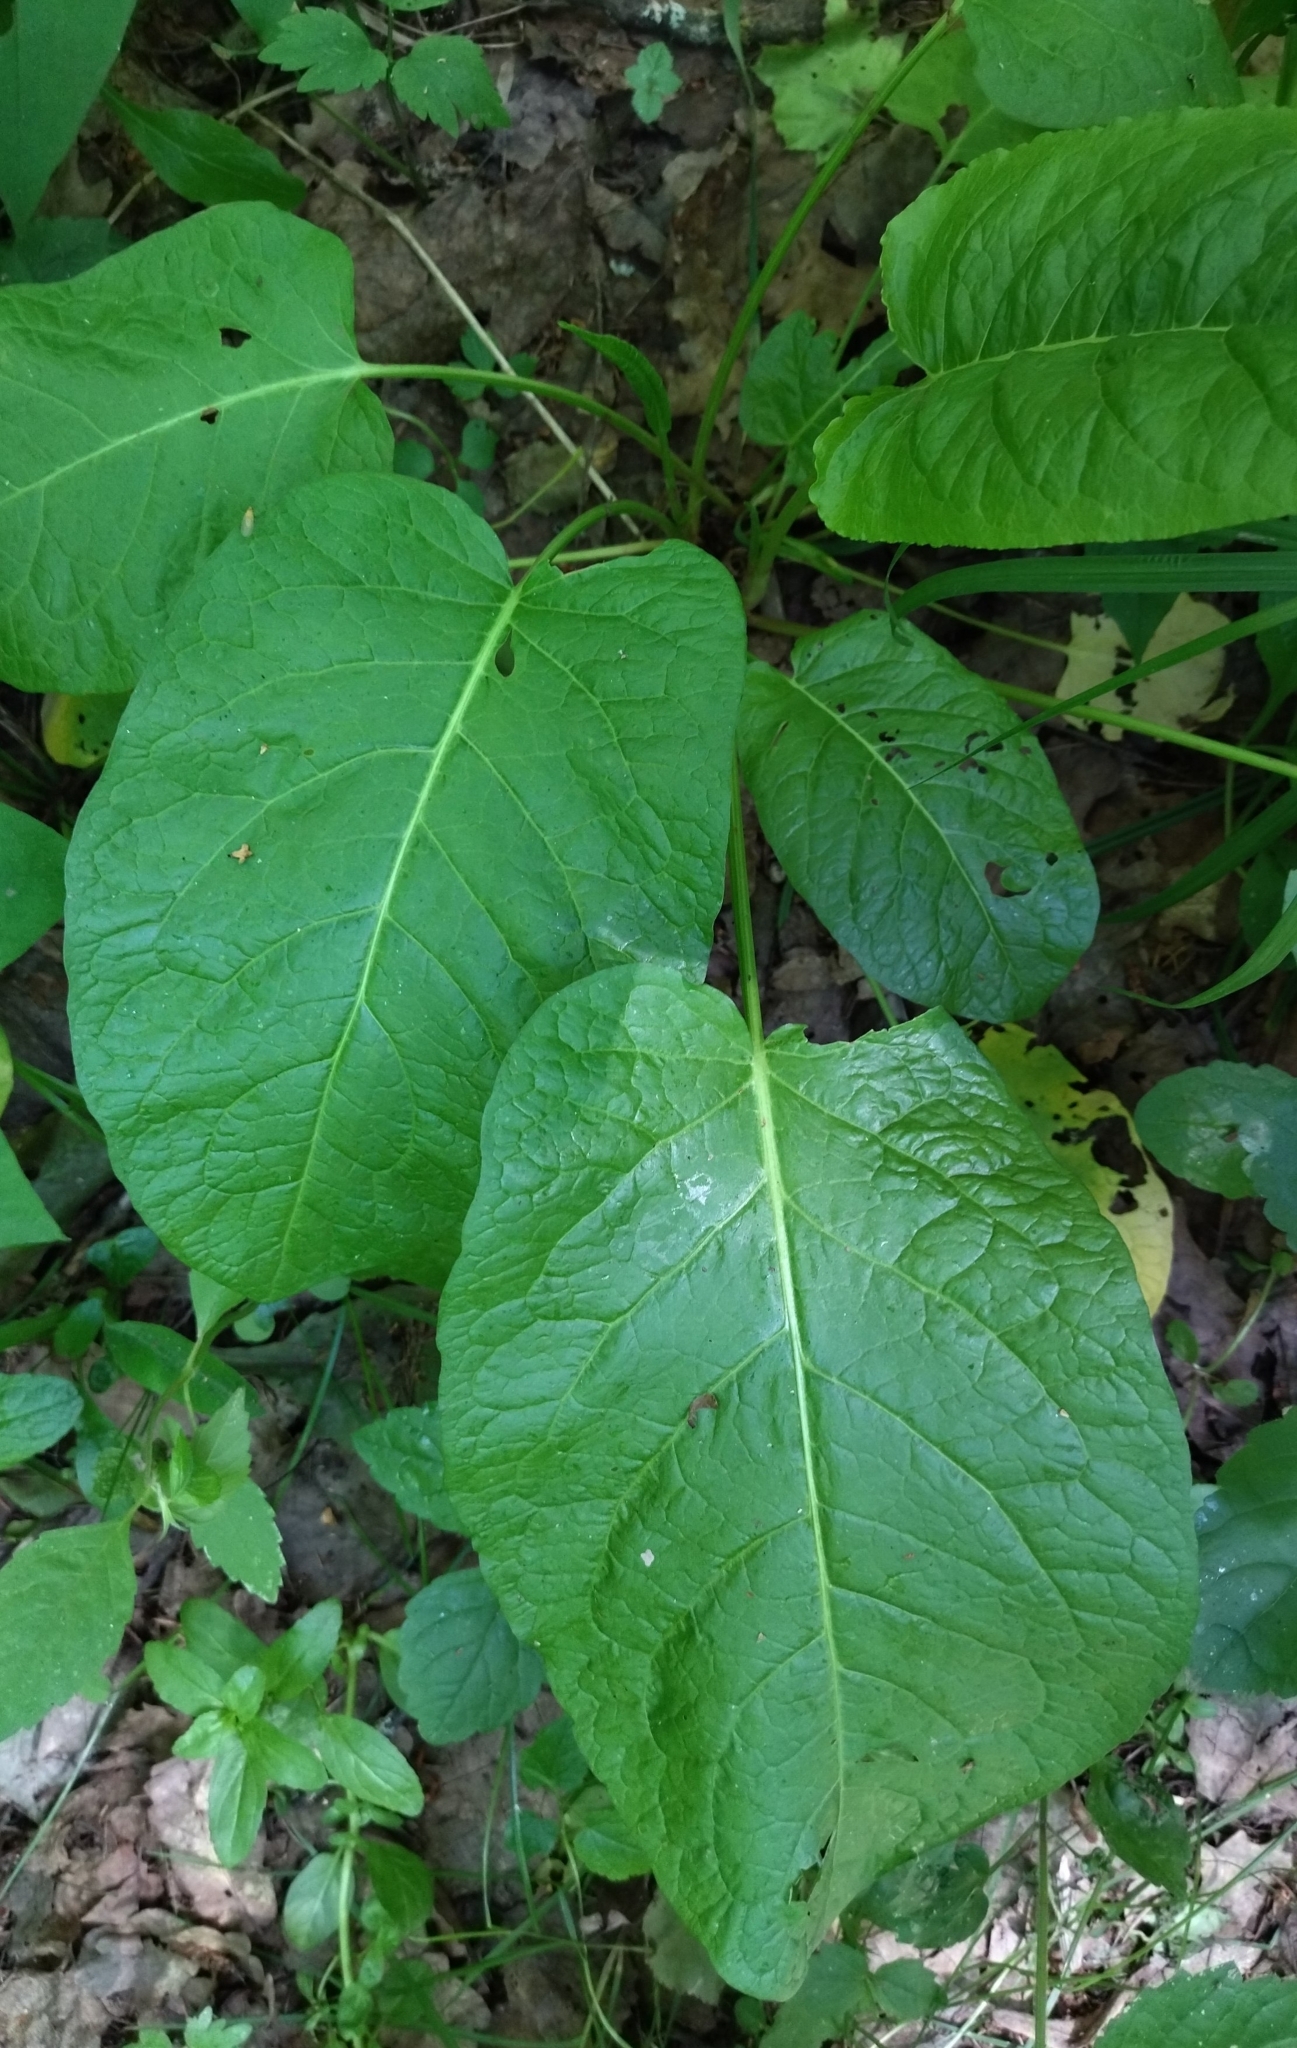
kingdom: Plantae
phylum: Tracheophyta
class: Magnoliopsida
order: Caryophyllales
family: Polygonaceae
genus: Rumex
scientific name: Rumex obtusifolius
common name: Bitter dock
